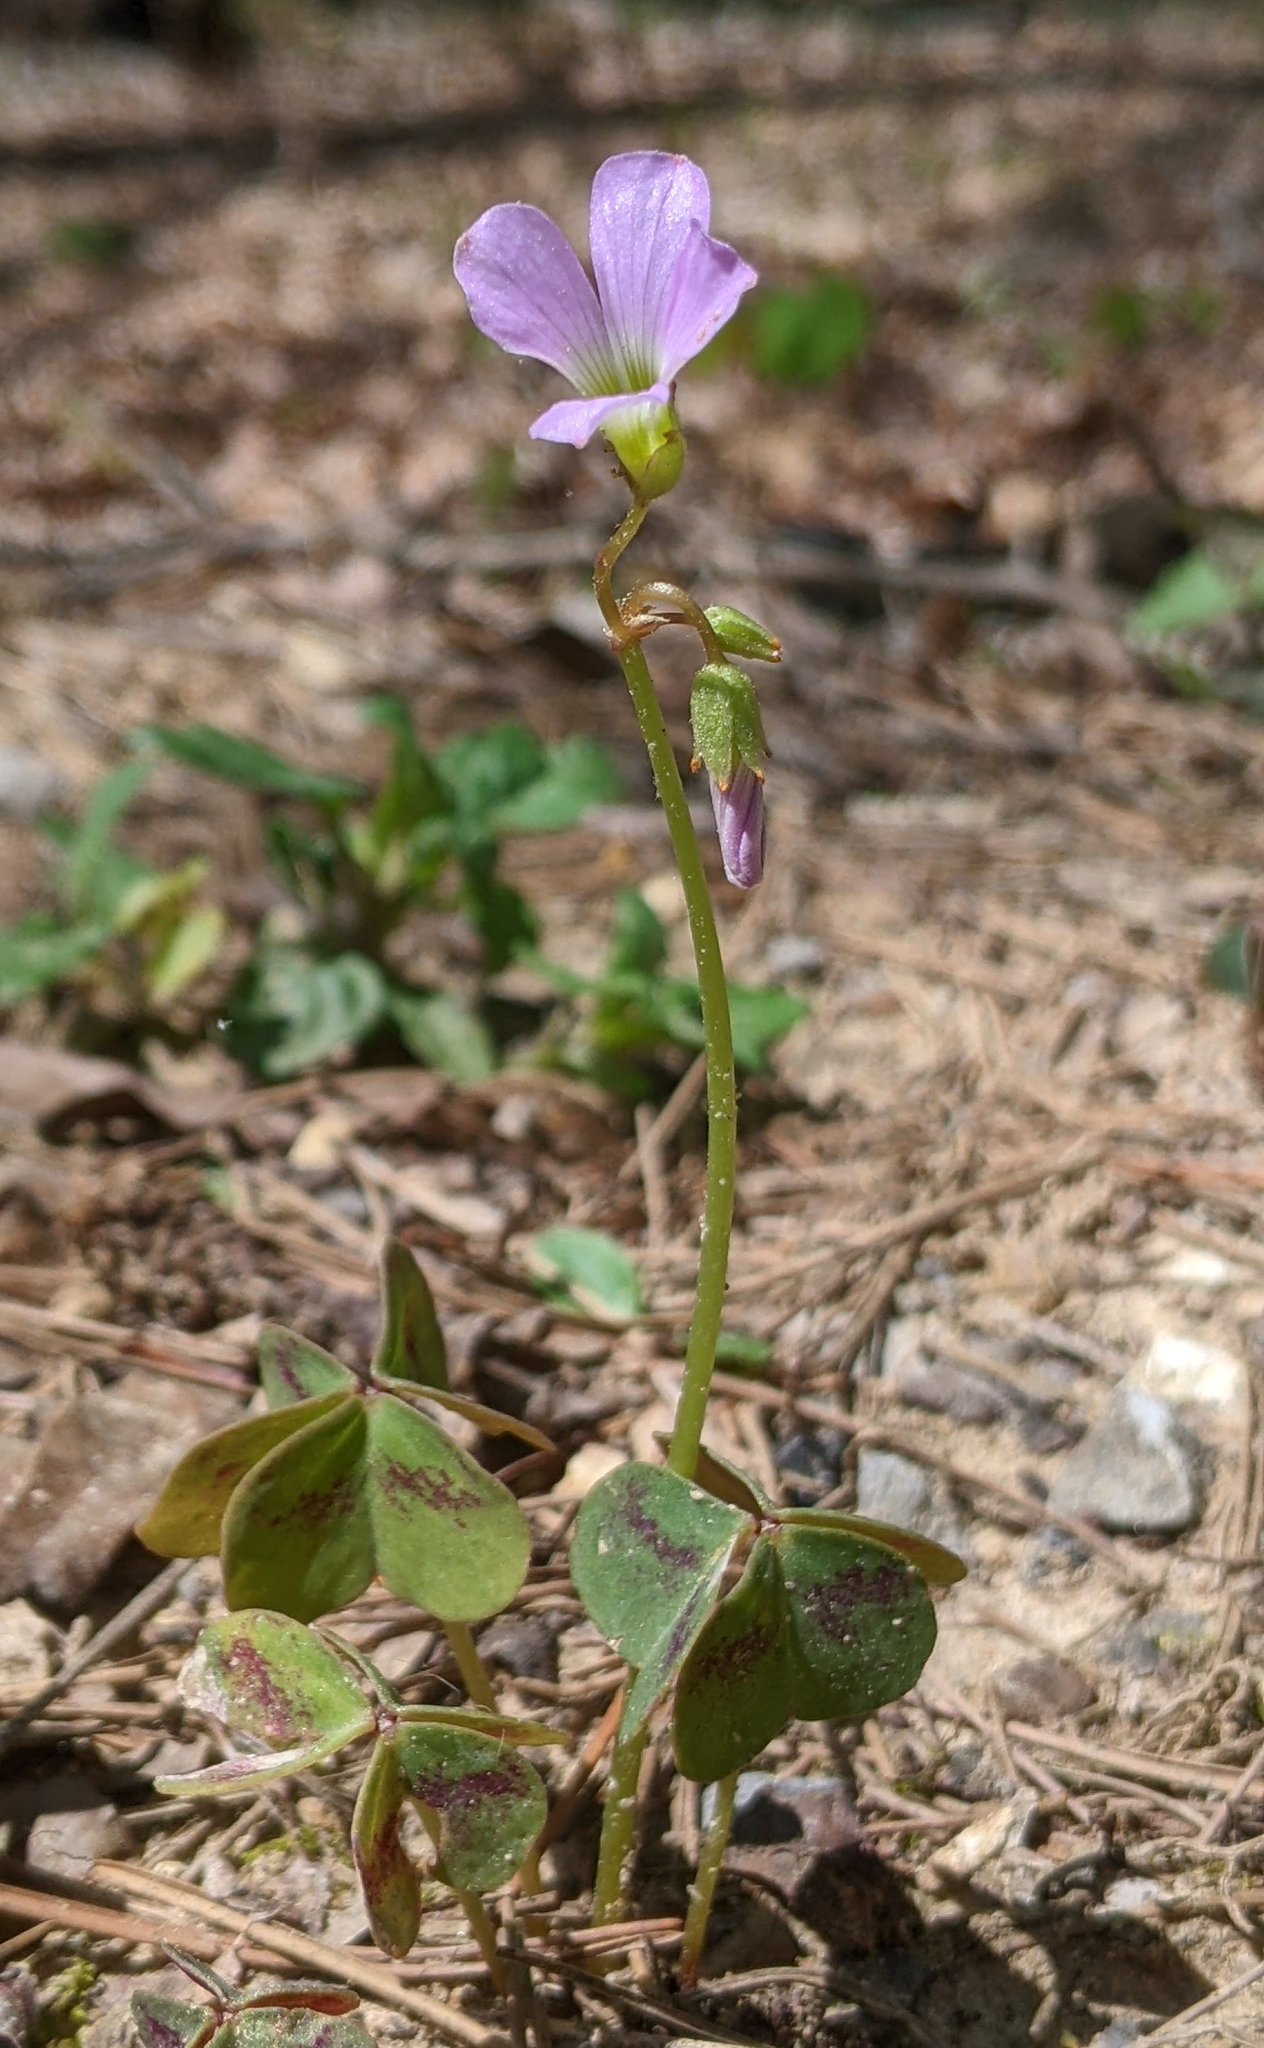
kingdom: Plantae
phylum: Tracheophyta
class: Magnoliopsida
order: Oxalidales
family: Oxalidaceae
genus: Oxalis
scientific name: Oxalis violacea
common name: Violet wood-sorrel
